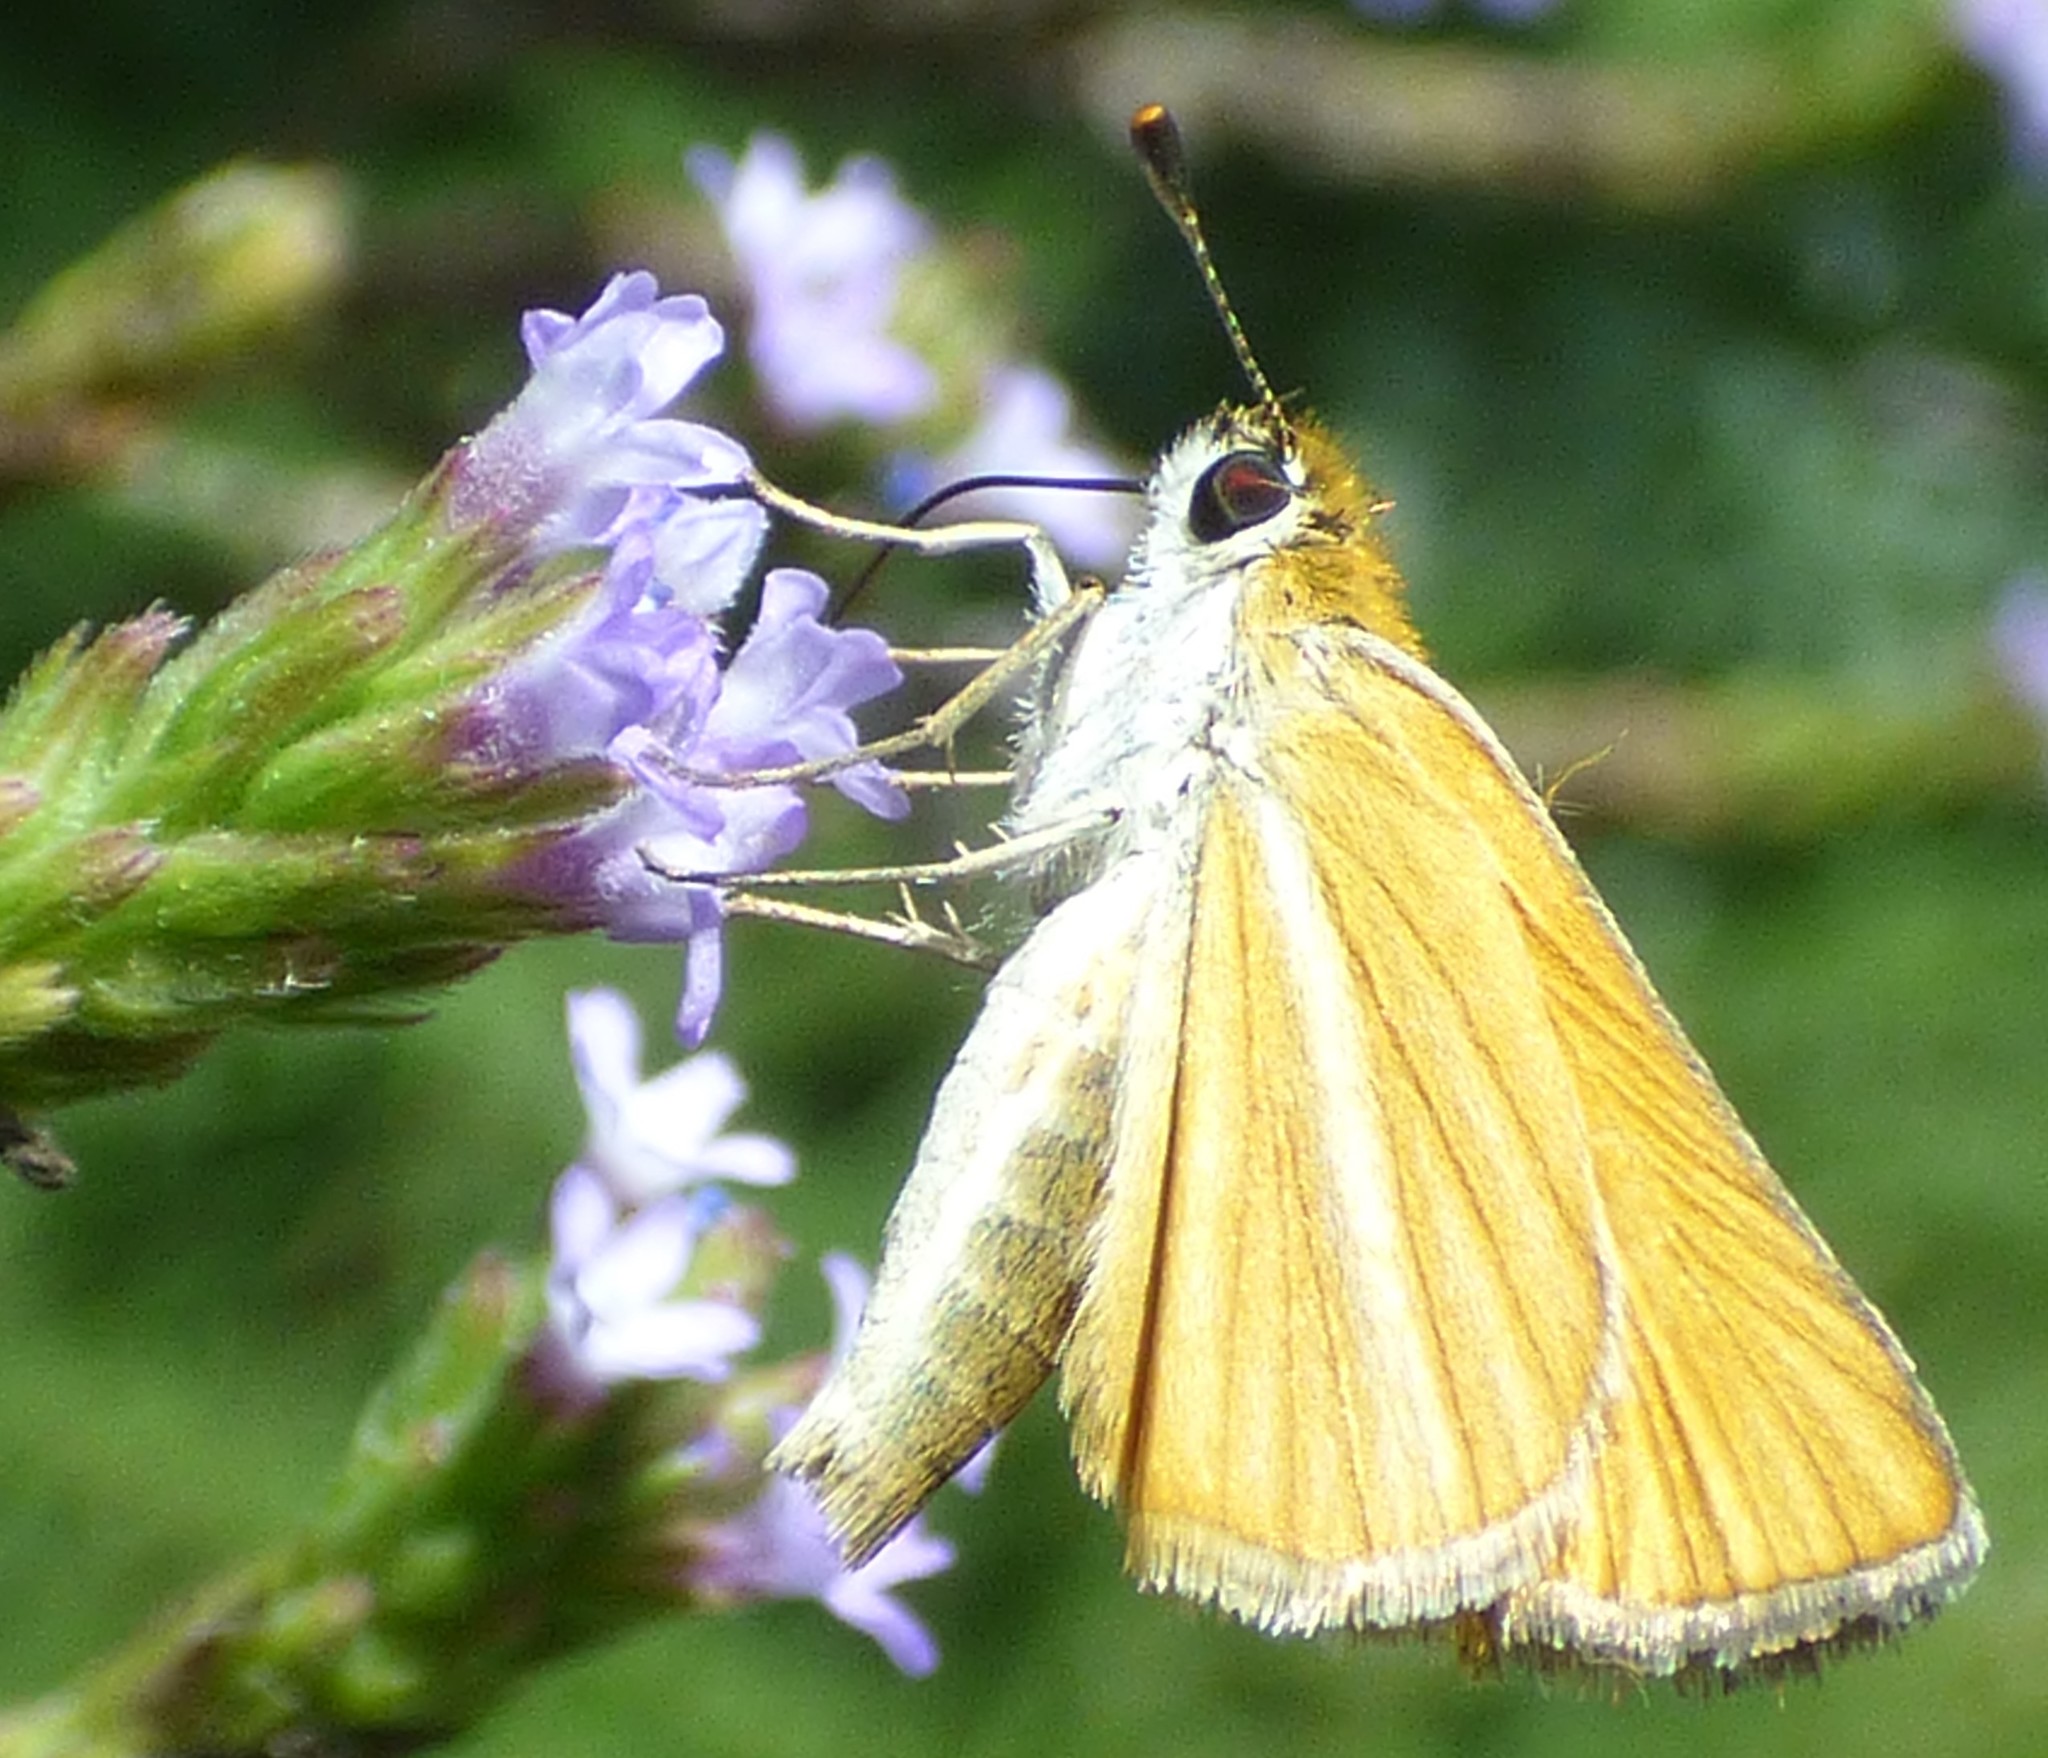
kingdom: Animalia
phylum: Arthropoda
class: Insecta
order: Lepidoptera
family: Hesperiidae
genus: Copaeodes
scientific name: Copaeodes minima
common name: Southern skipperling
